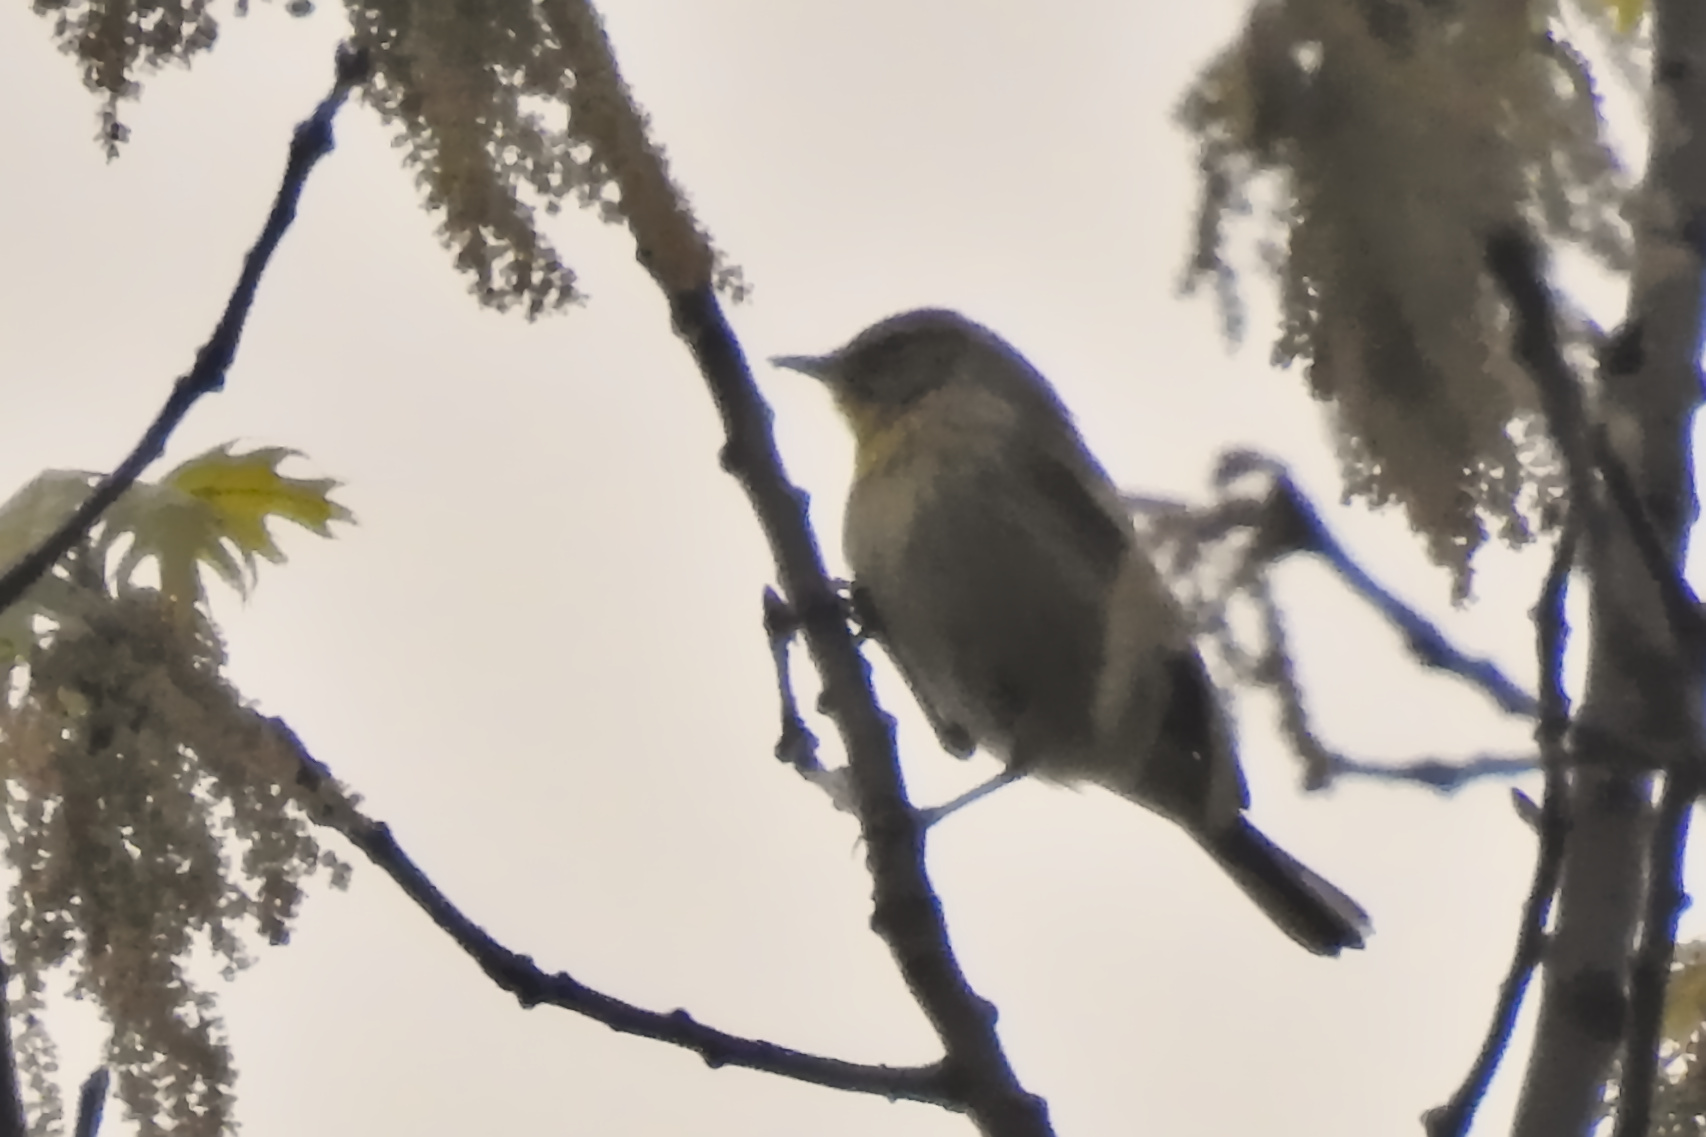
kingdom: Animalia
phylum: Chordata
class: Aves
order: Passeriformes
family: Parulidae
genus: Setophaga
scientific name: Setophaga palmarum
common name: Palm warbler
